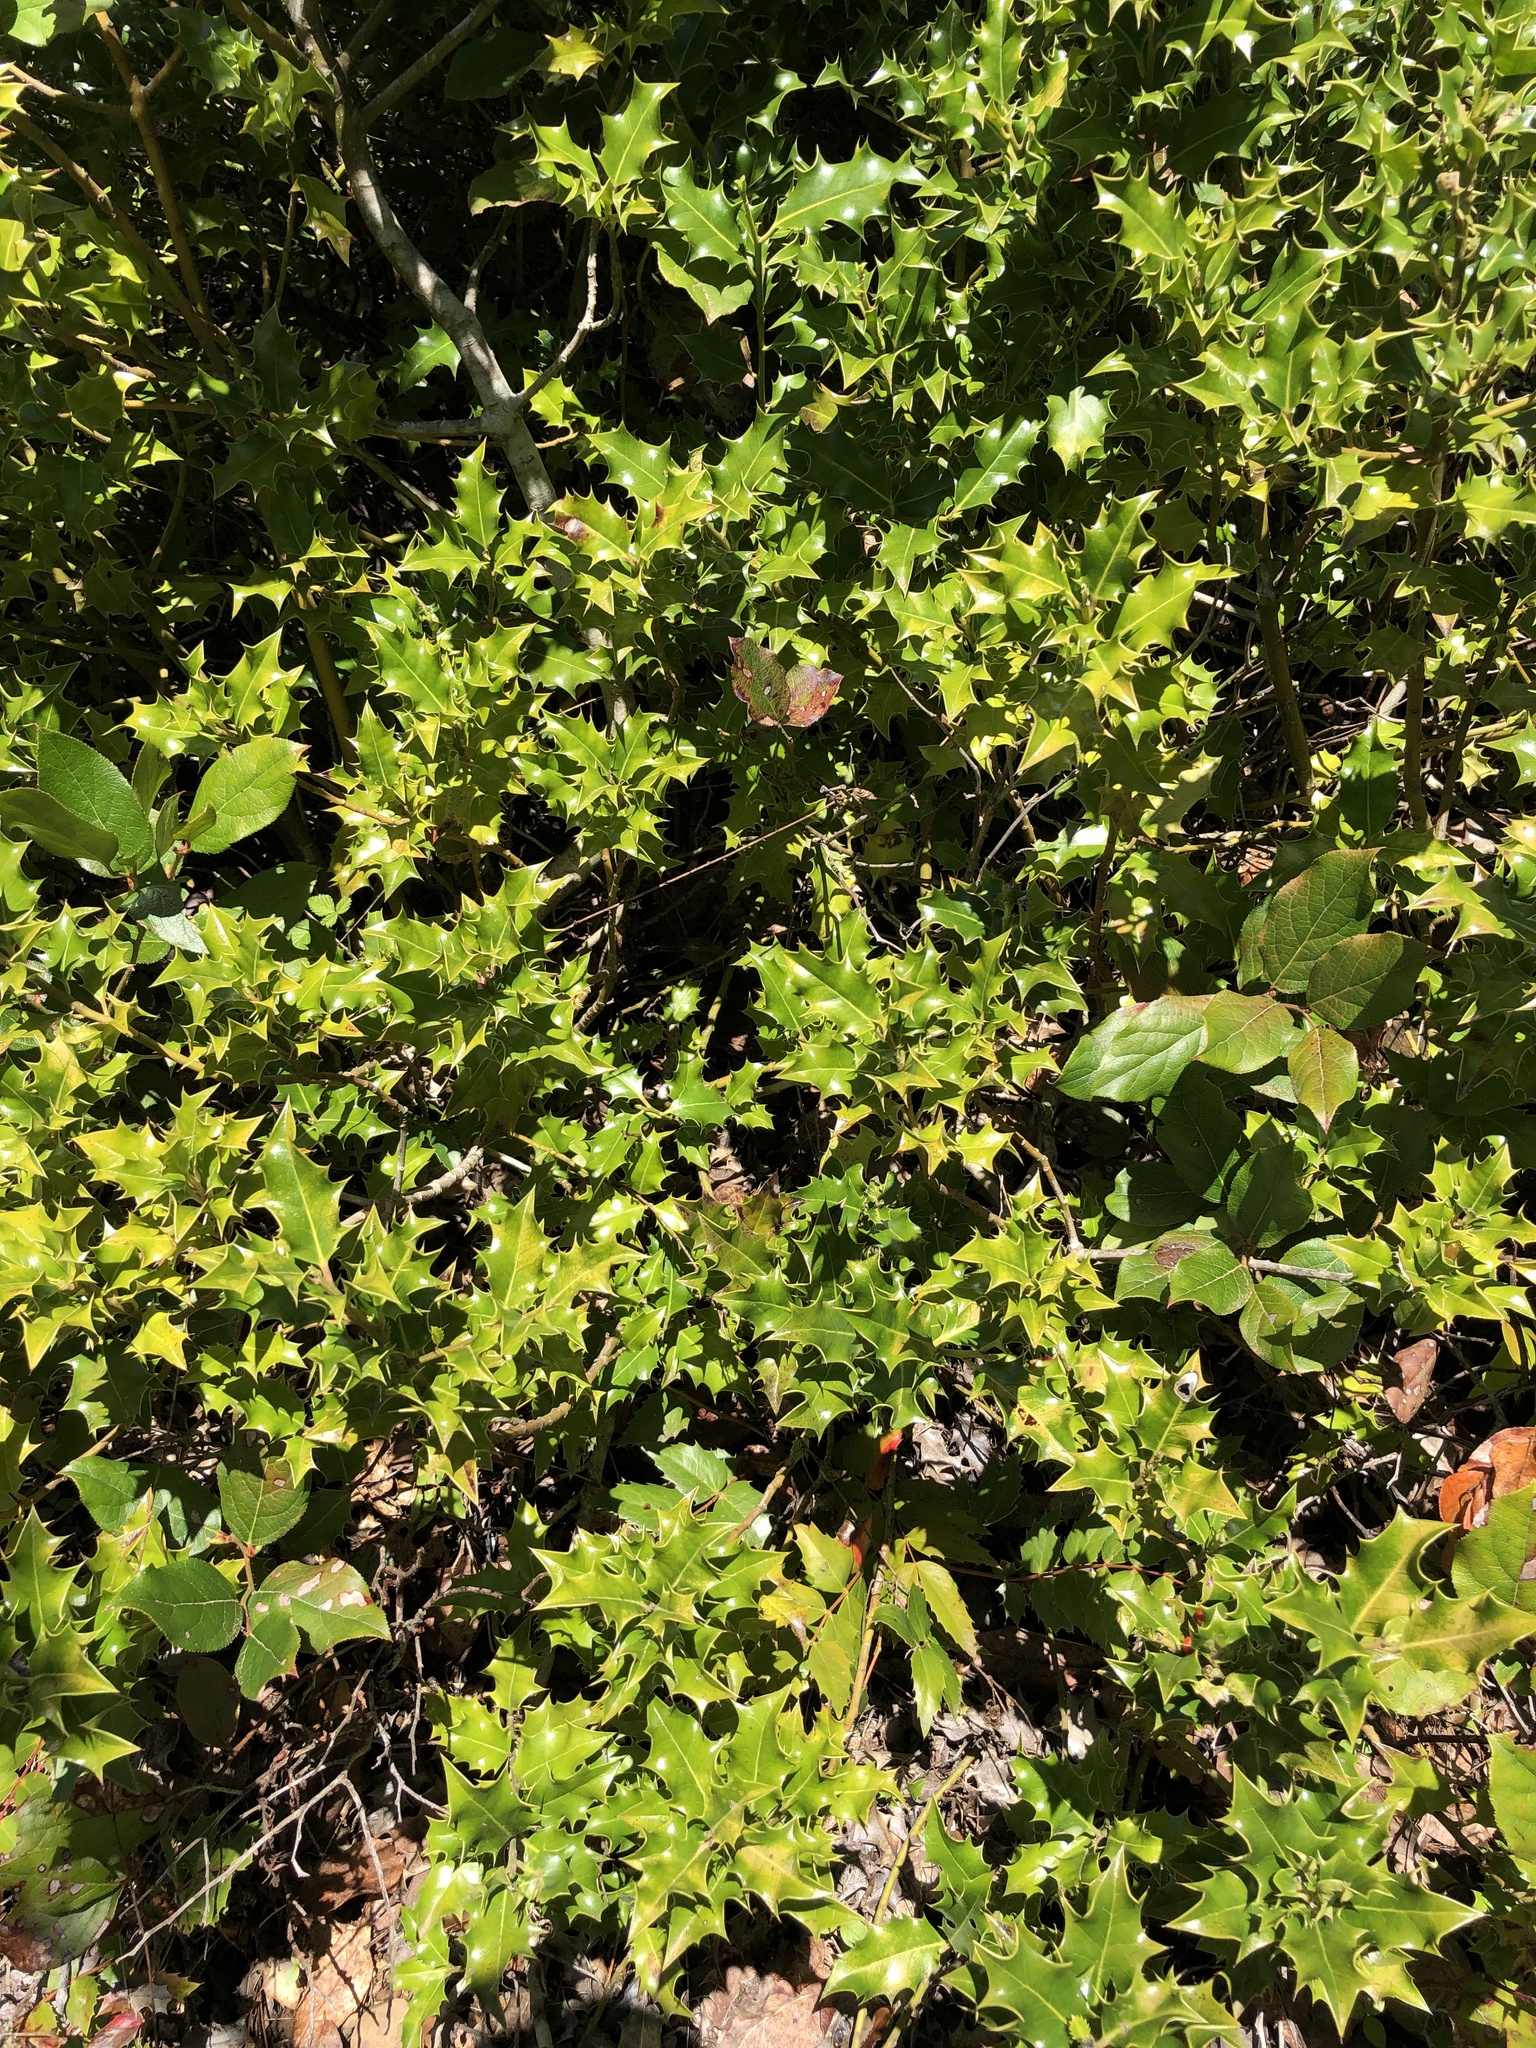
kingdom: Plantae
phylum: Tracheophyta
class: Magnoliopsida
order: Aquifoliales
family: Aquifoliaceae
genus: Ilex
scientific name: Ilex aquifolium
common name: English holly
